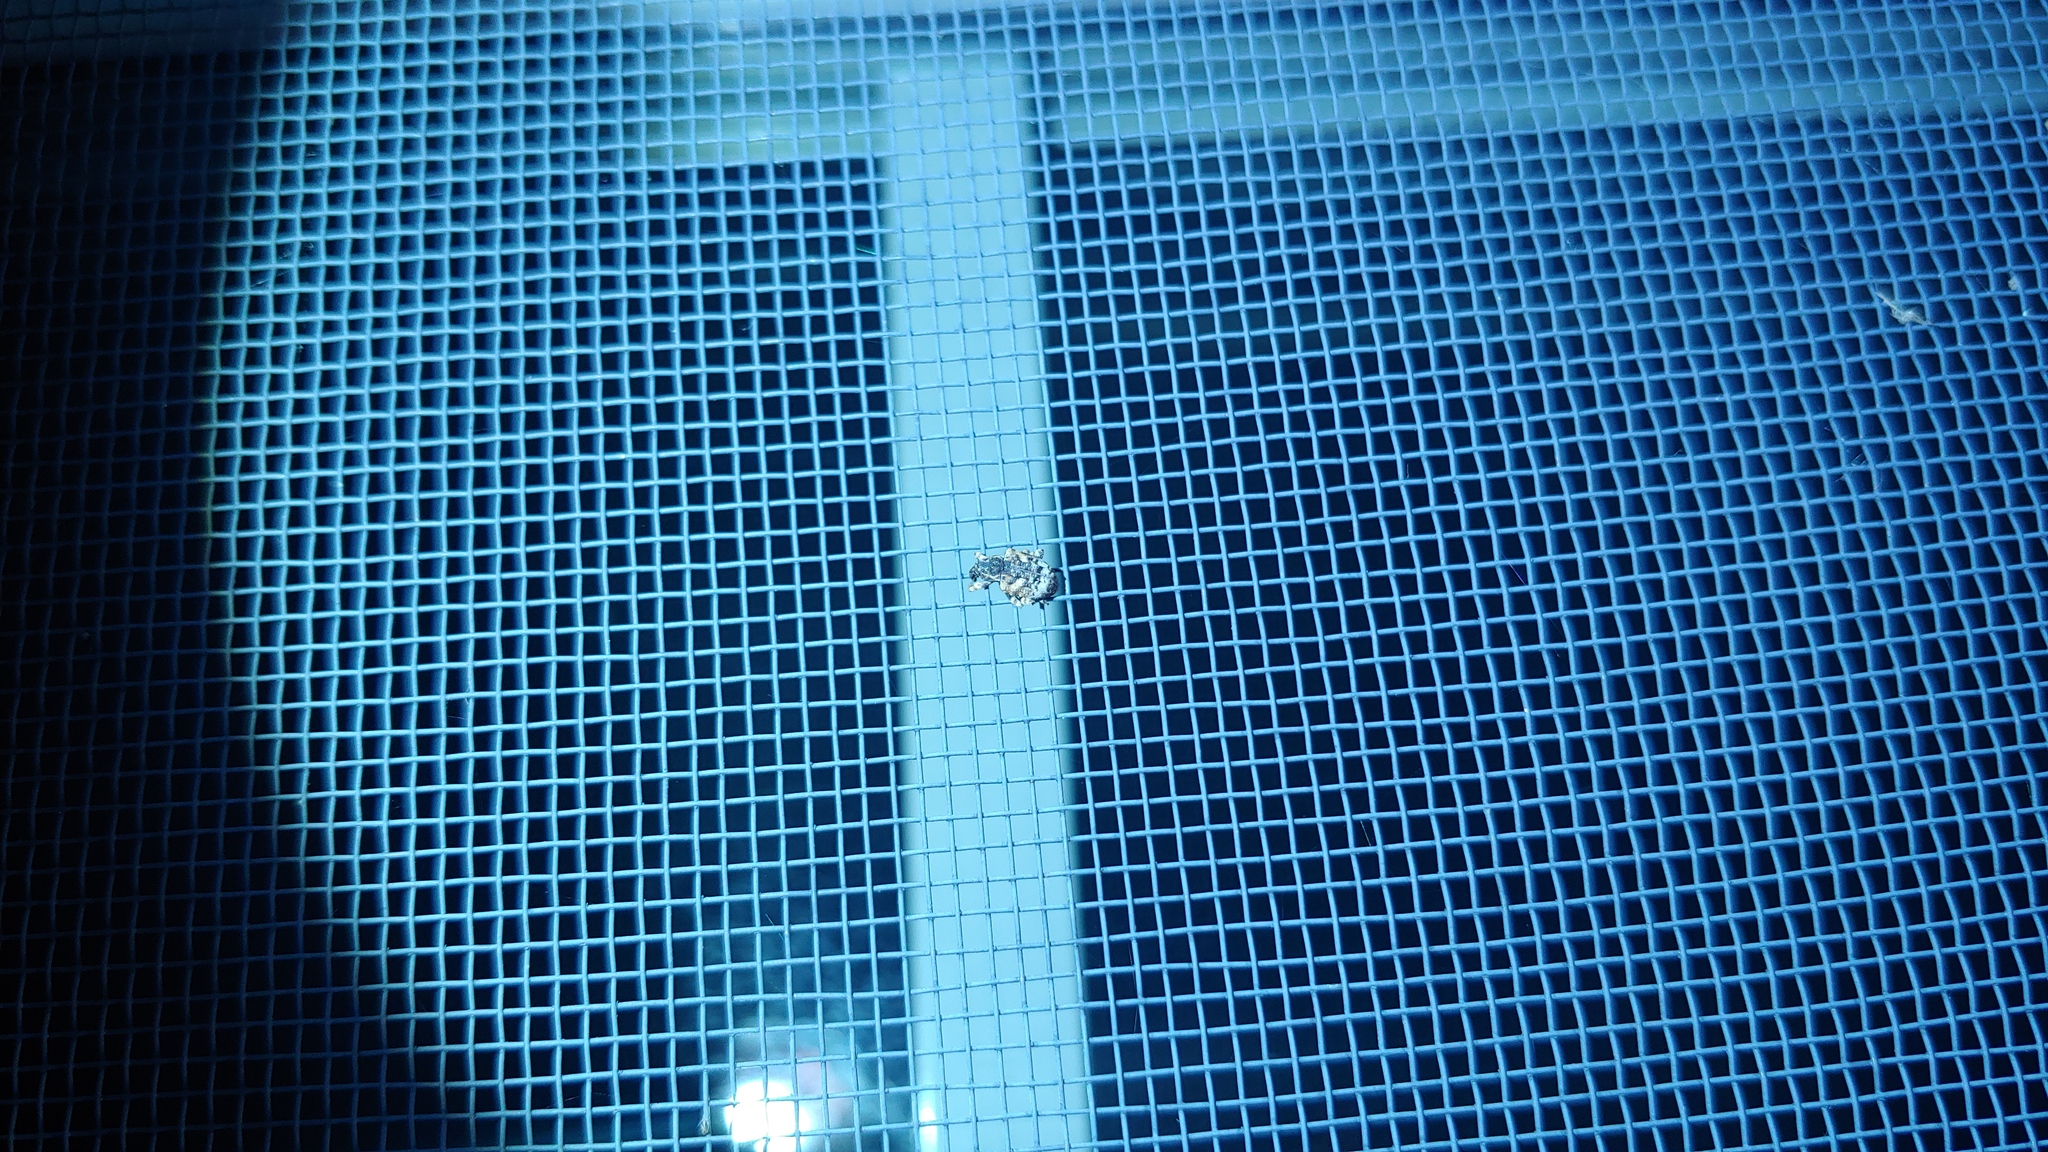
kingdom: Animalia
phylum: Arthropoda
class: Insecta
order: Coleoptera
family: Curculionidae
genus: Conotrachelus
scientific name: Conotrachelus anaglypticus
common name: Cambium curculio
